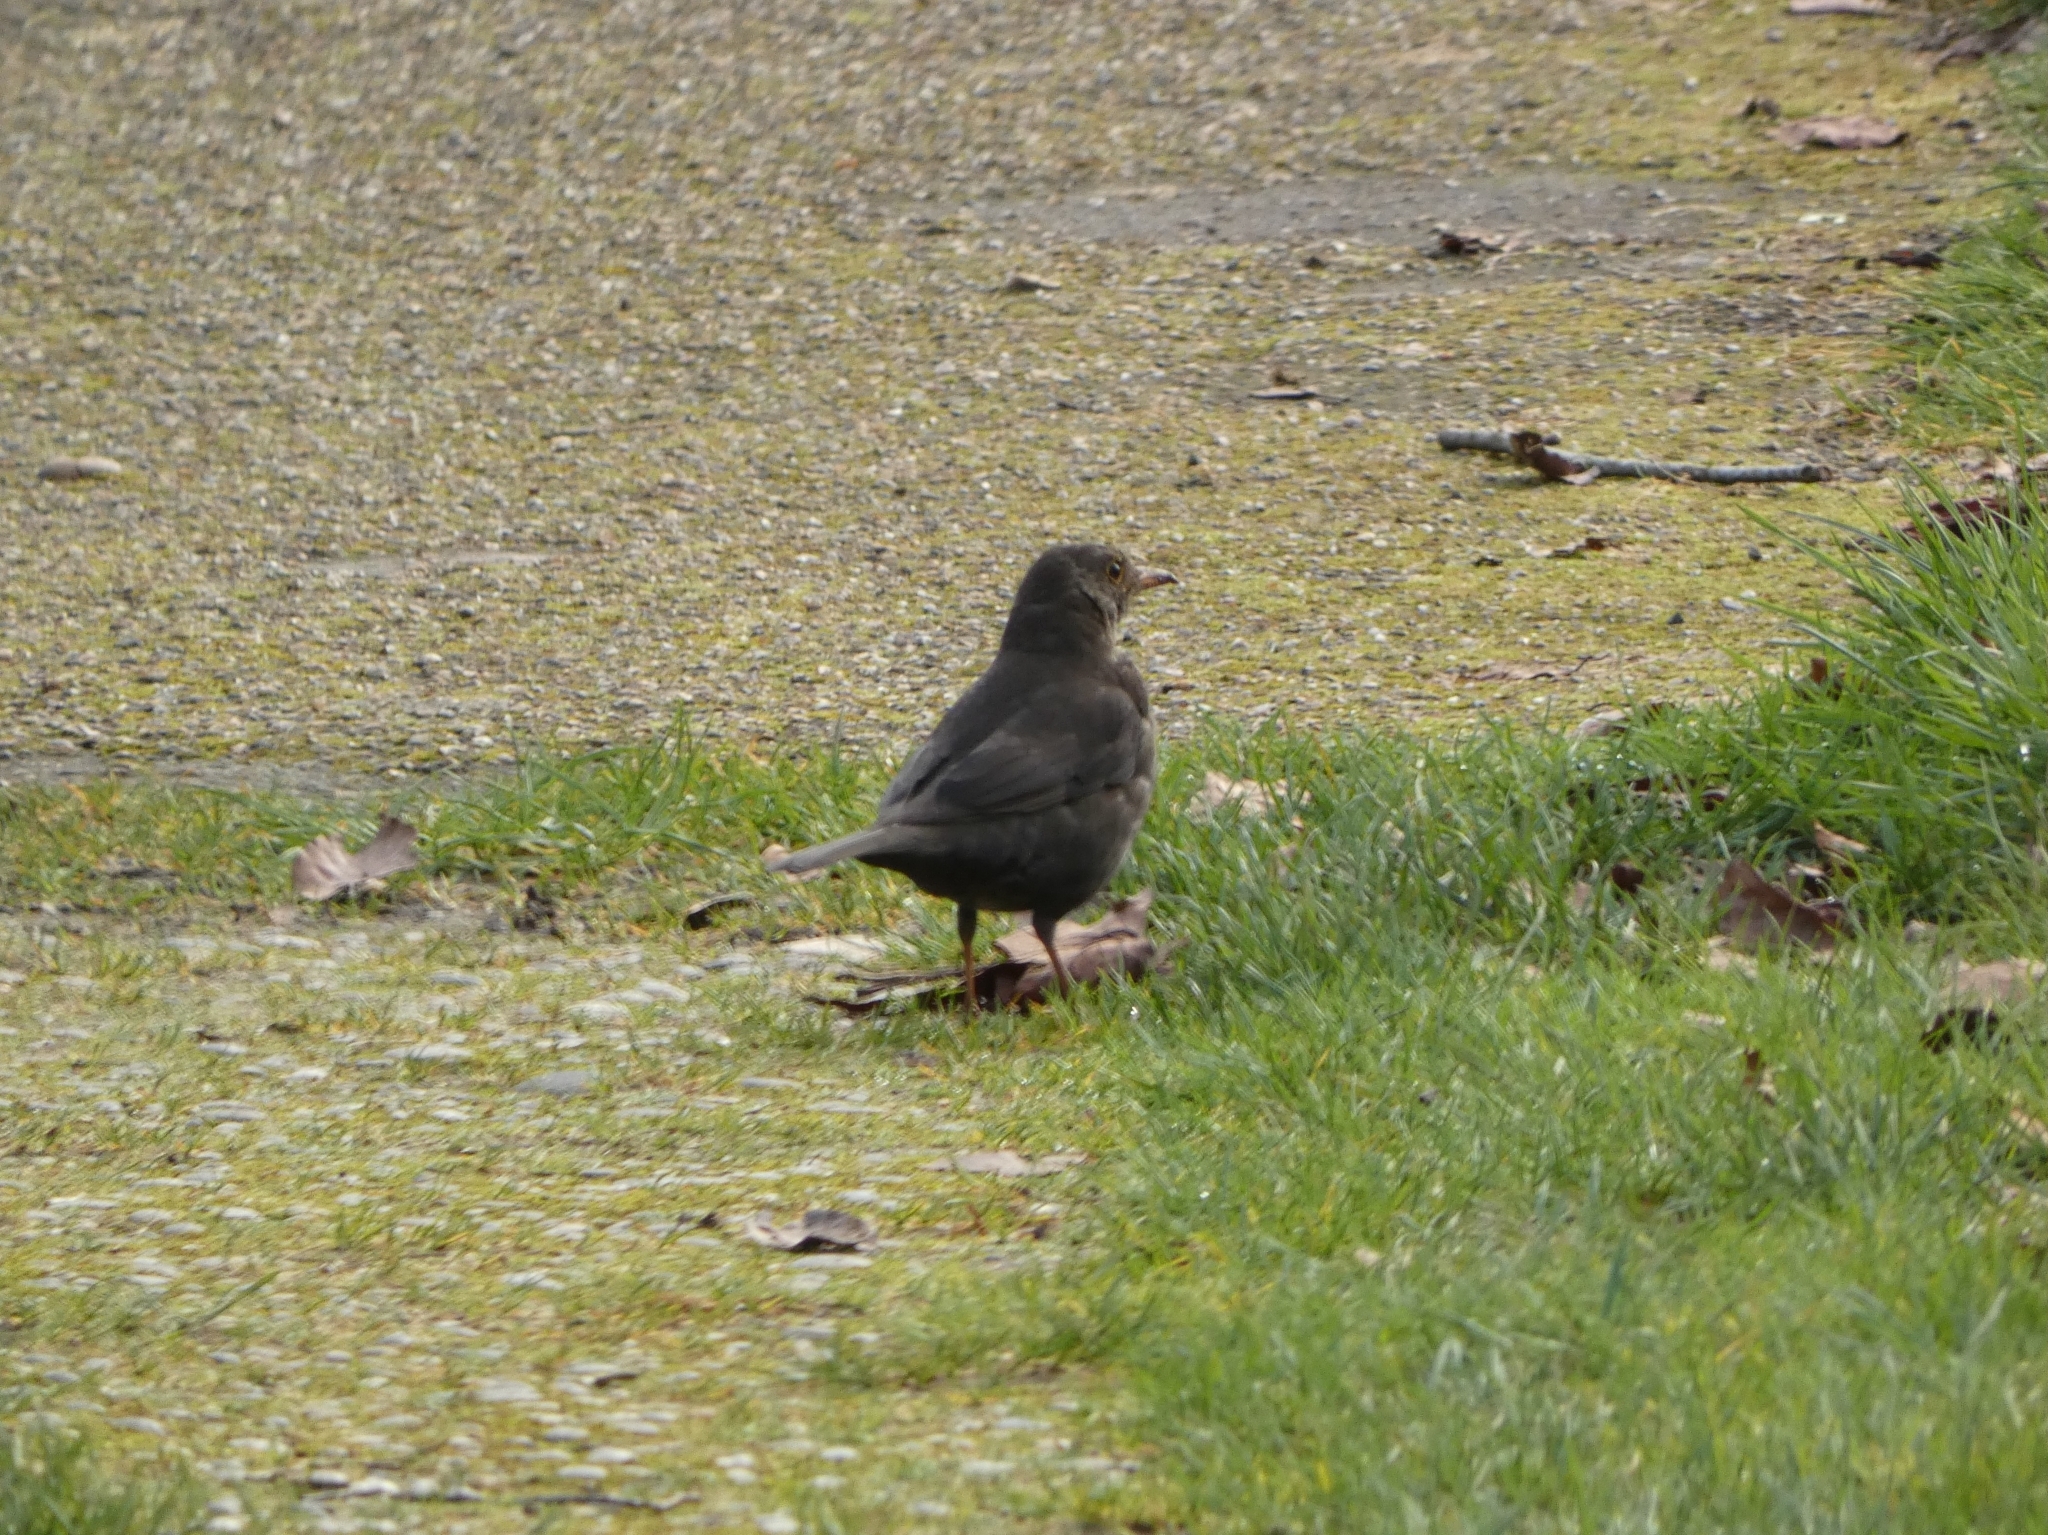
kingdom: Animalia
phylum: Chordata
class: Aves
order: Passeriformes
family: Turdidae
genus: Turdus
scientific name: Turdus merula
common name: Common blackbird
